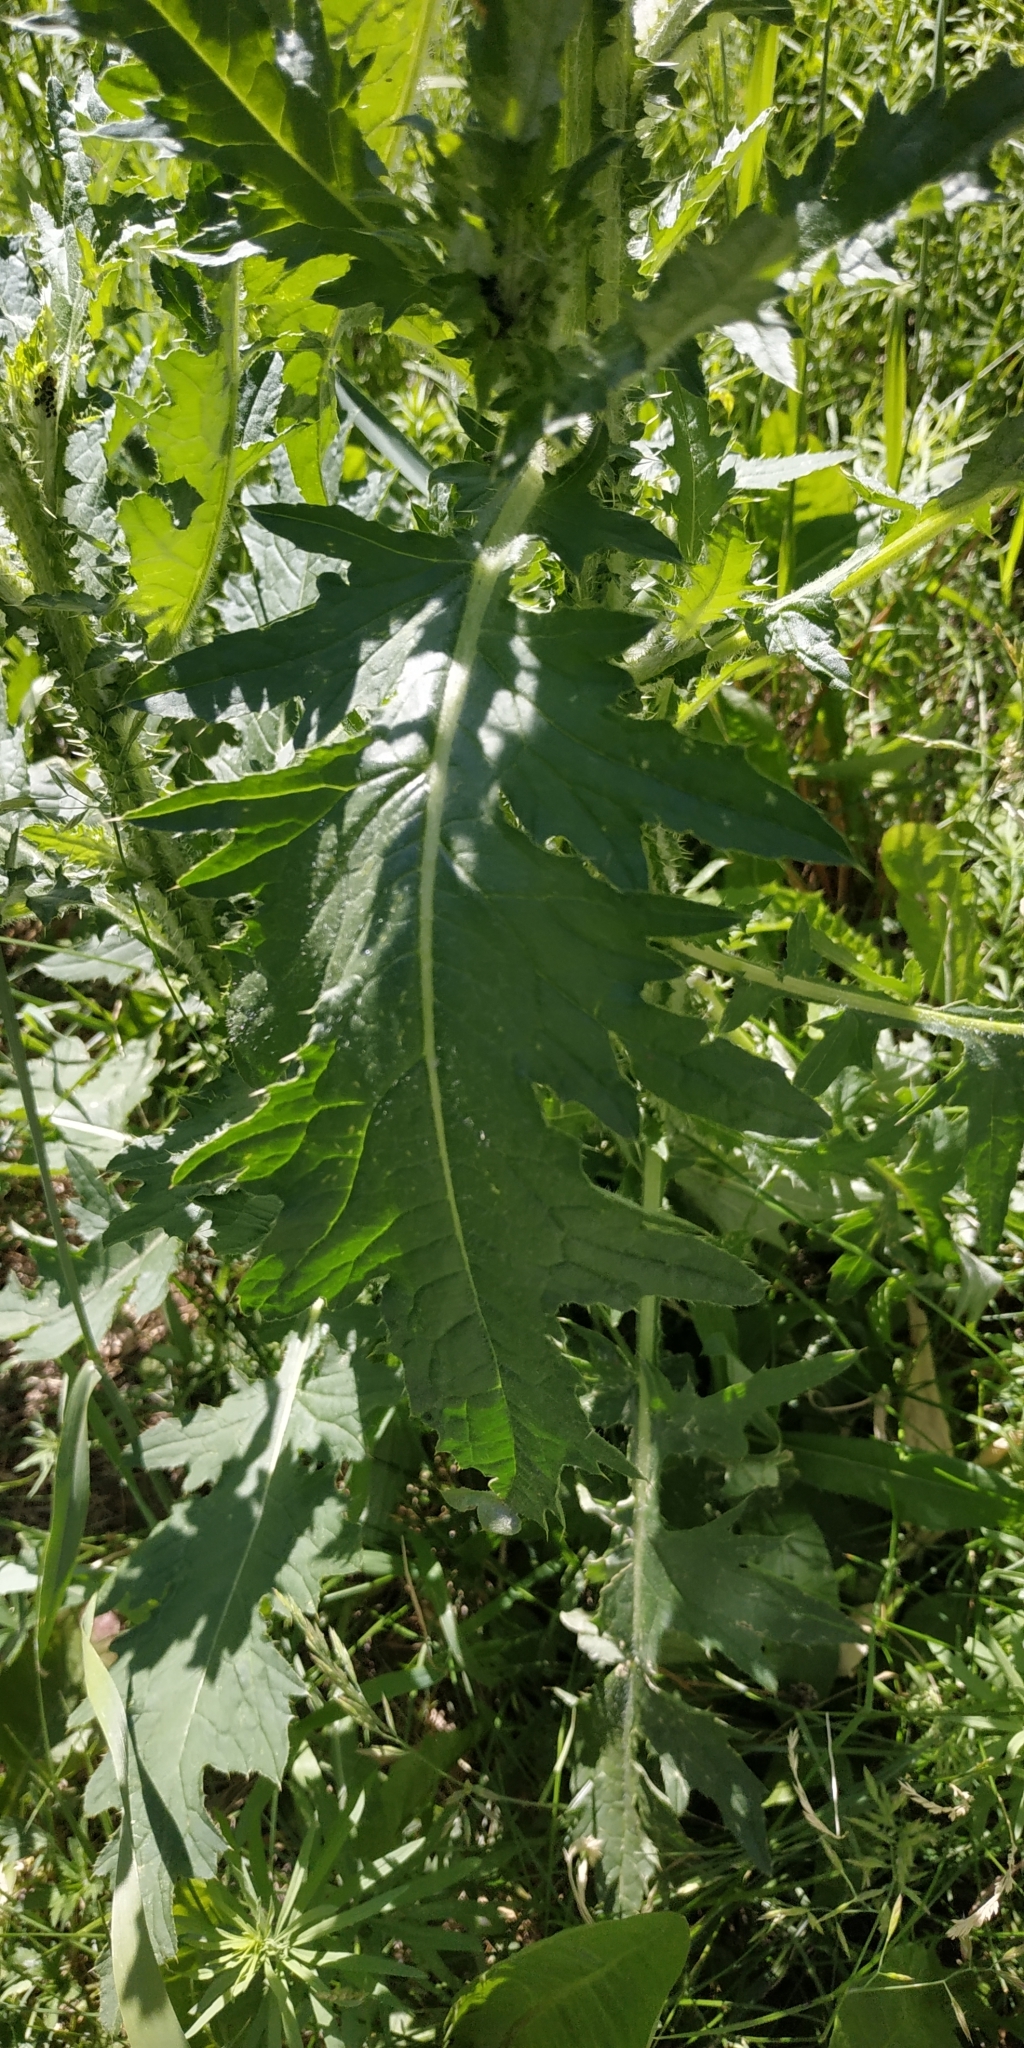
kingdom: Plantae
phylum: Tracheophyta
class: Magnoliopsida
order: Asterales
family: Asteraceae
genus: Carduus
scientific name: Carduus crispus
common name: Welted thistle
